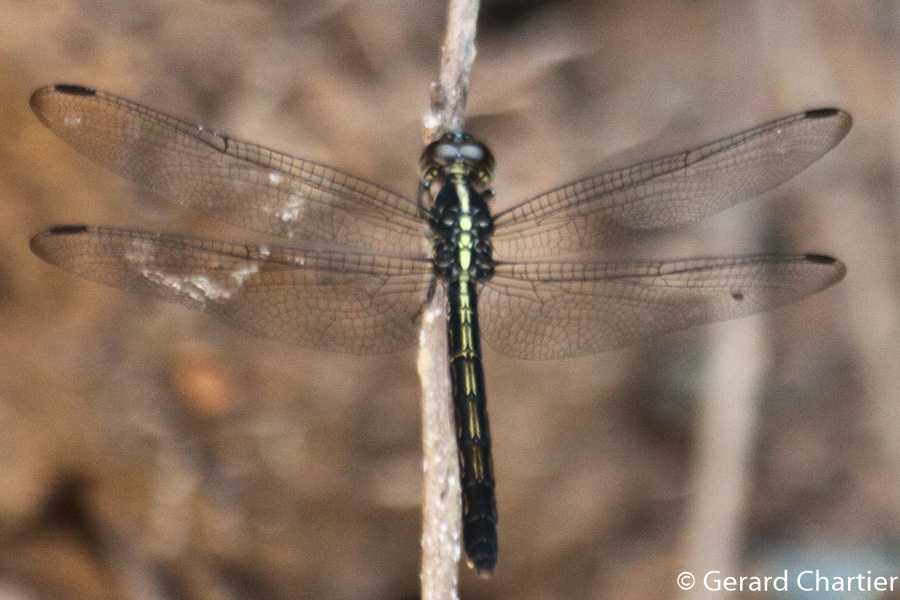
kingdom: Animalia
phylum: Arthropoda
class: Insecta
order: Odonata
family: Libellulidae
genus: Cratilla
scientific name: Cratilla lineata
